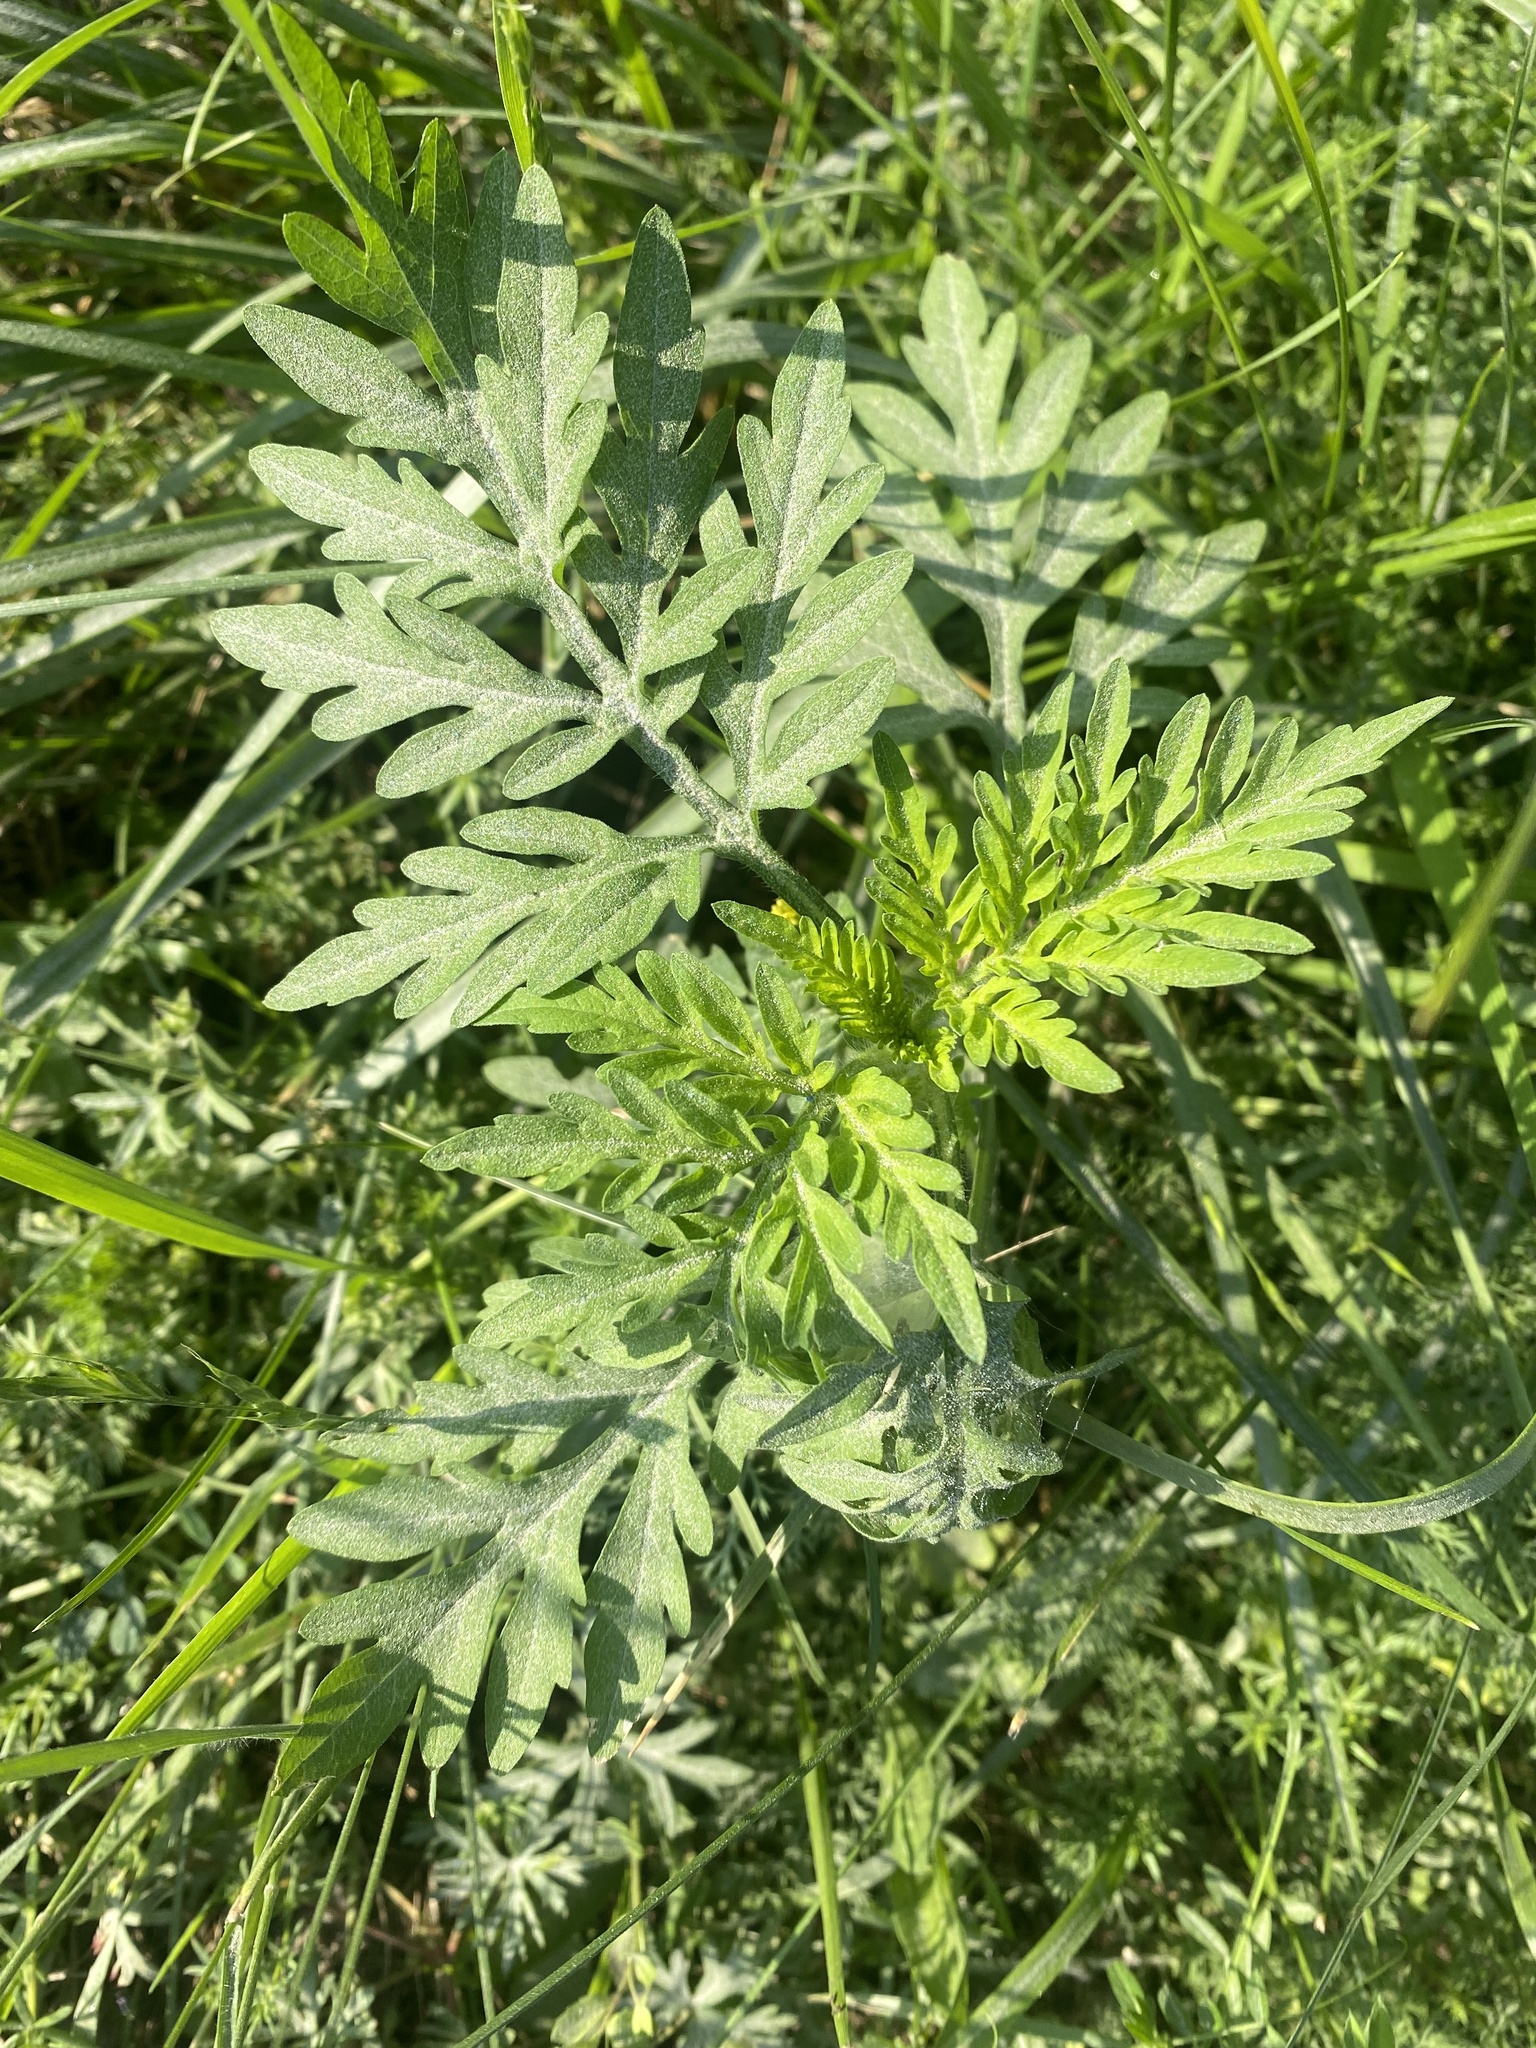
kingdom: Plantae
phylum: Tracheophyta
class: Magnoliopsida
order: Asterales
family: Asteraceae
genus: Ambrosia
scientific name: Ambrosia artemisiifolia
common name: Annual ragweed
